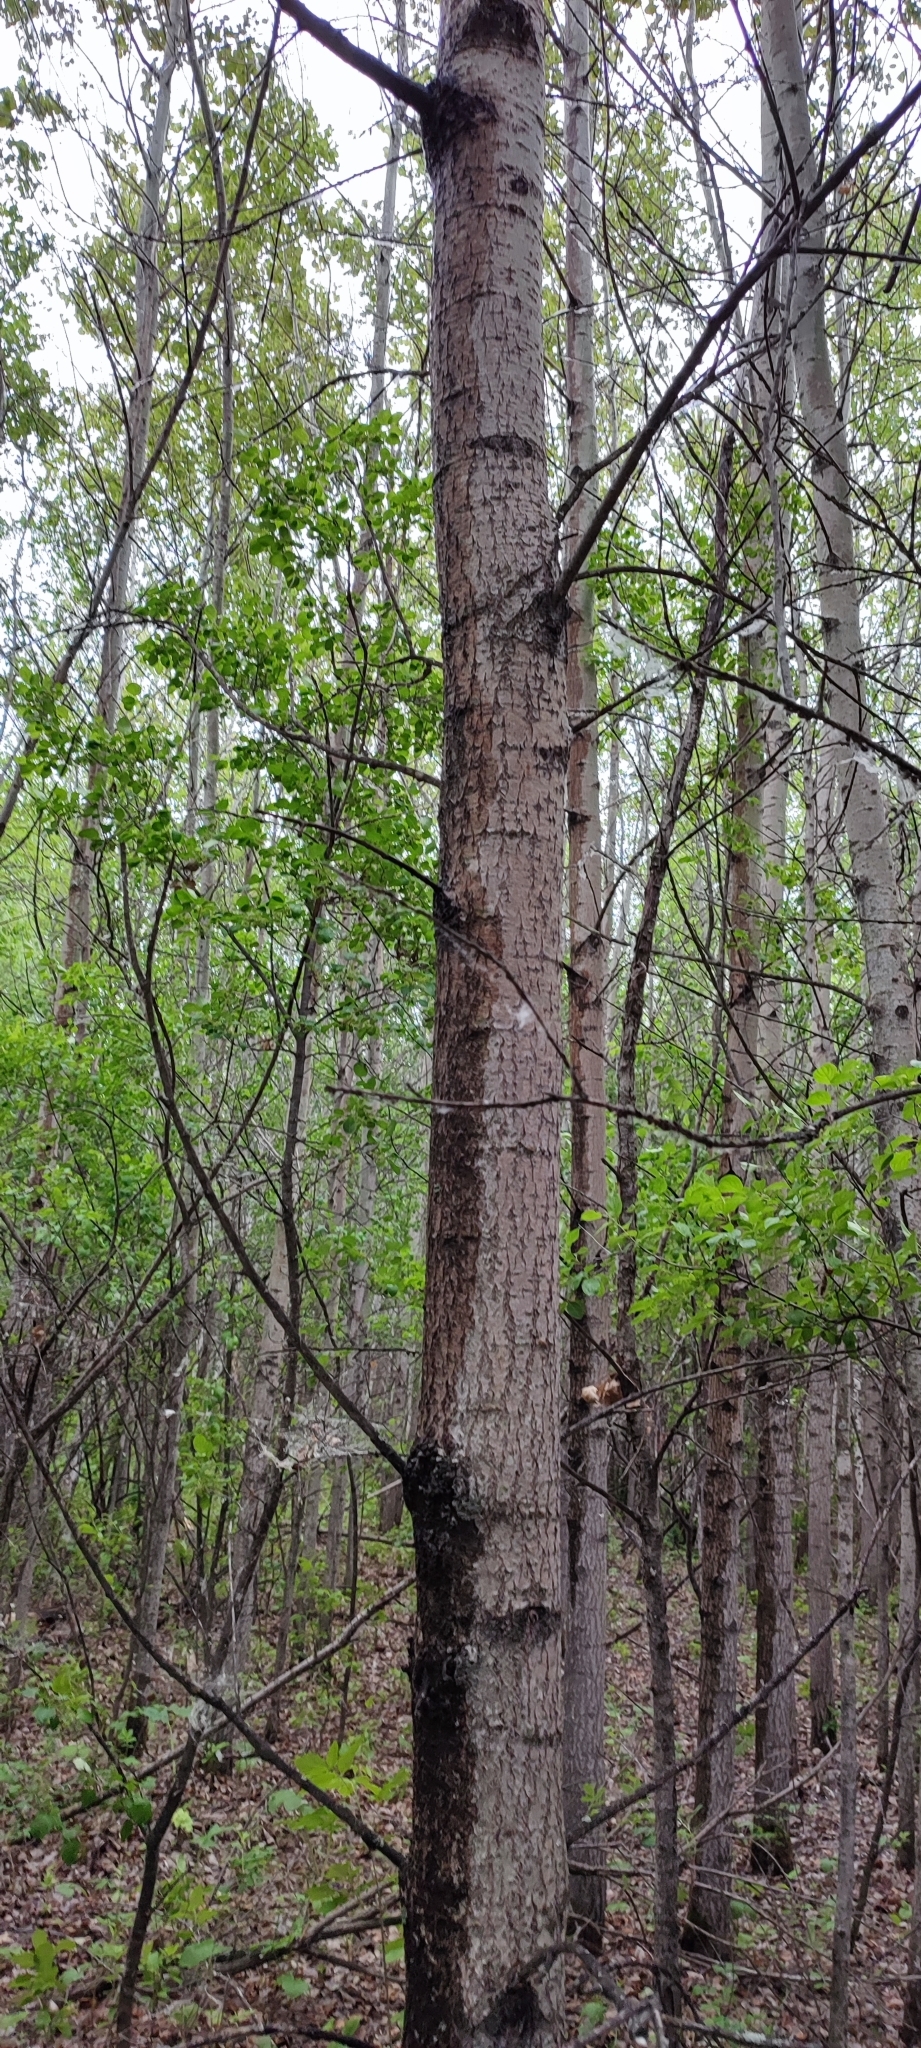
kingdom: Plantae
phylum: Tracheophyta
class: Magnoliopsida
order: Malpighiales
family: Salicaceae
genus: Populus
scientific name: Populus tremula
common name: European aspen
